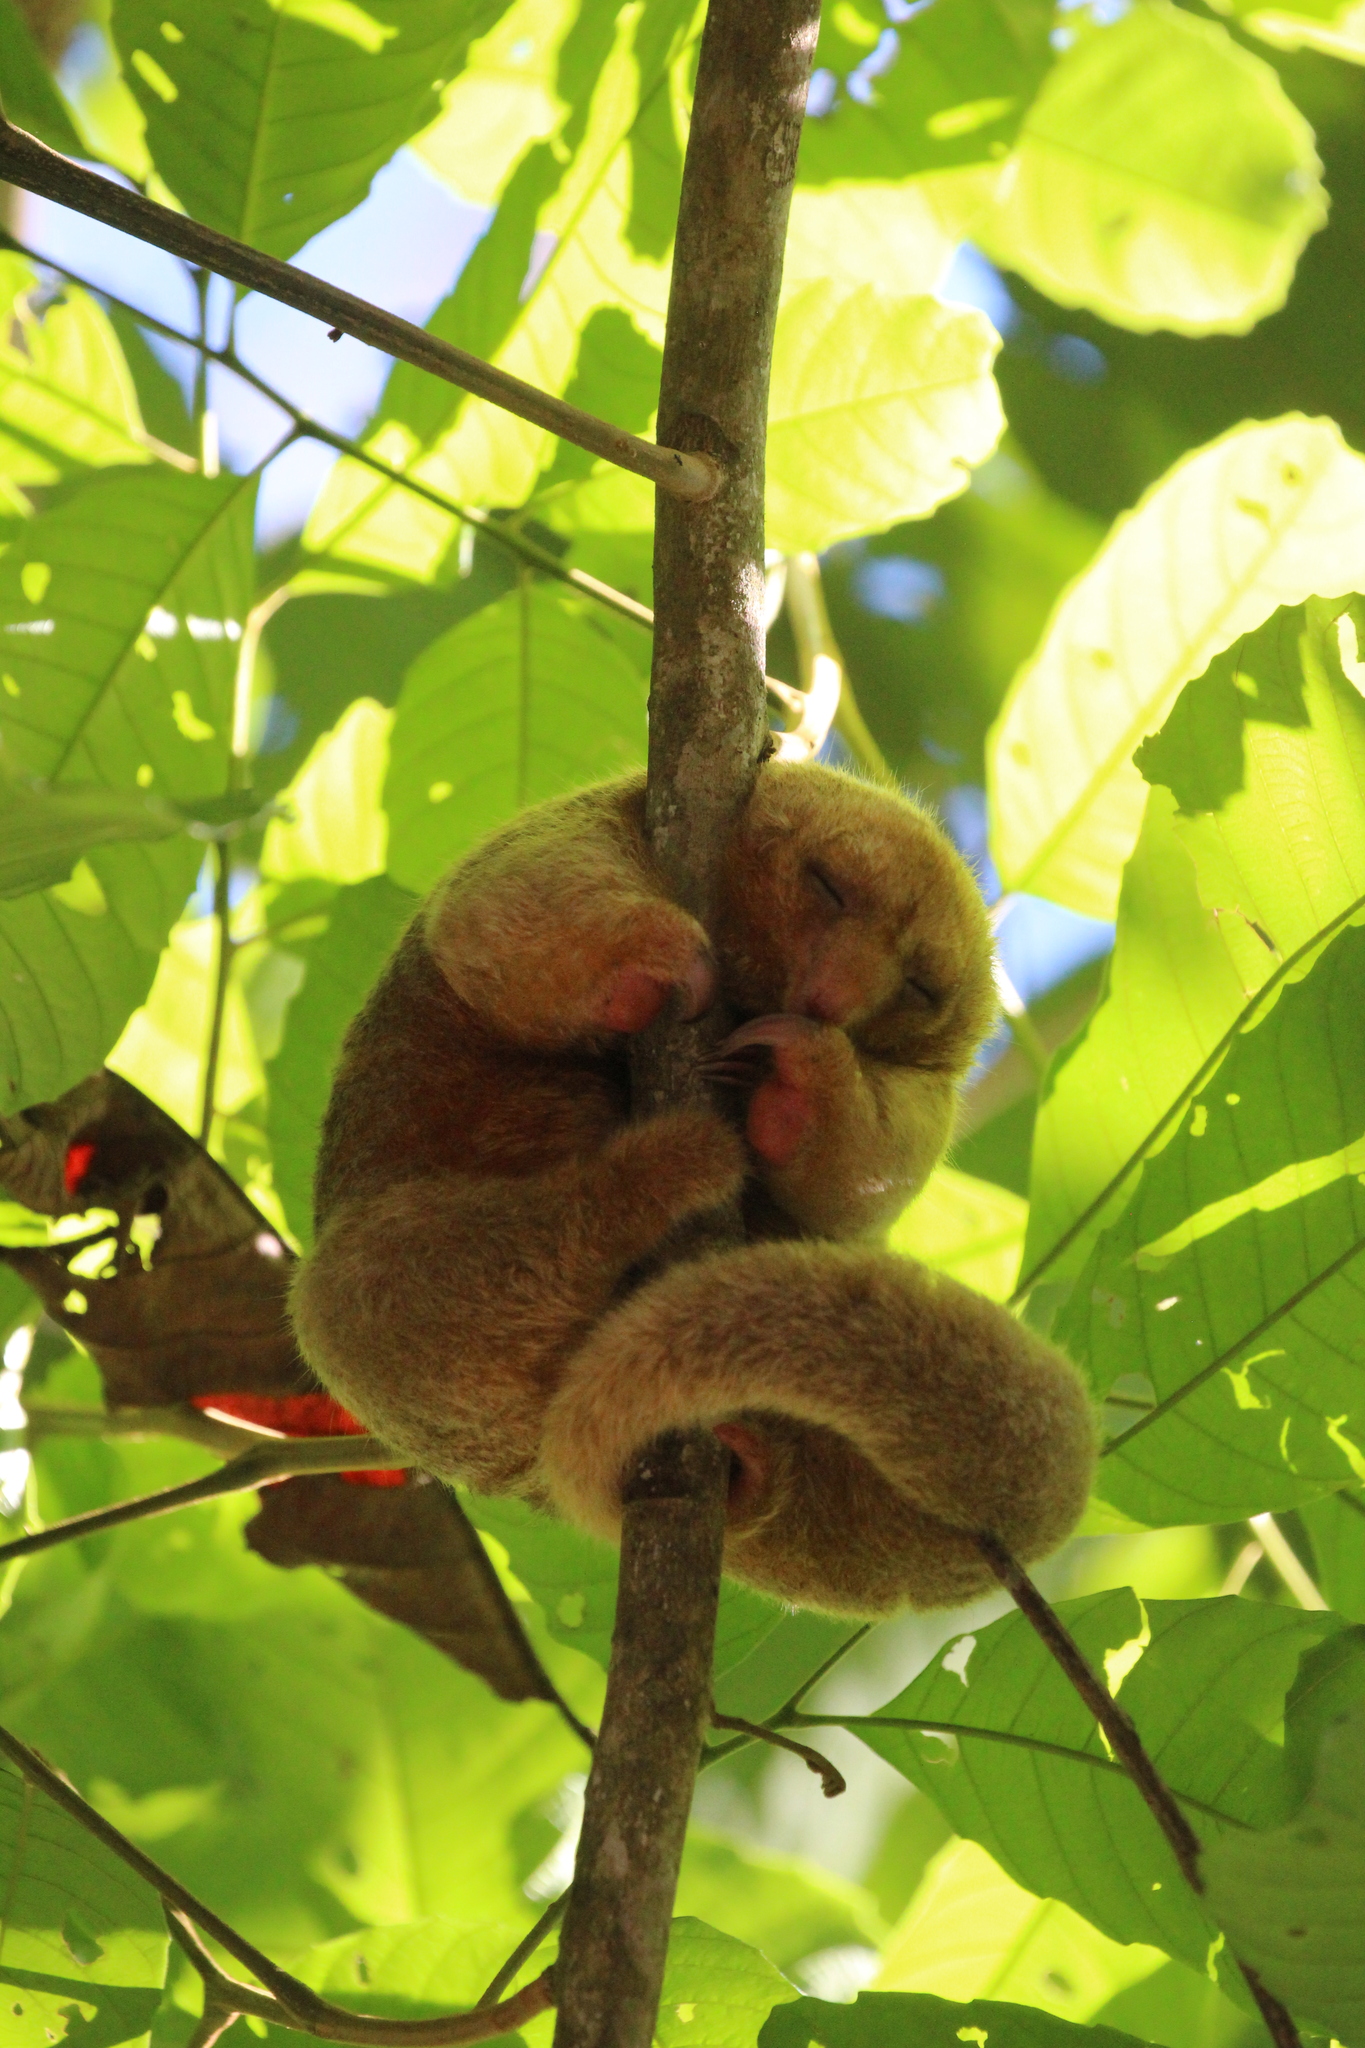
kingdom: Animalia
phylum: Chordata
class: Mammalia
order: Pilosa
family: Cyclopedidae
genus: Cyclopes
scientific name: Cyclopes dorsalis
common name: Central american silky anteater
